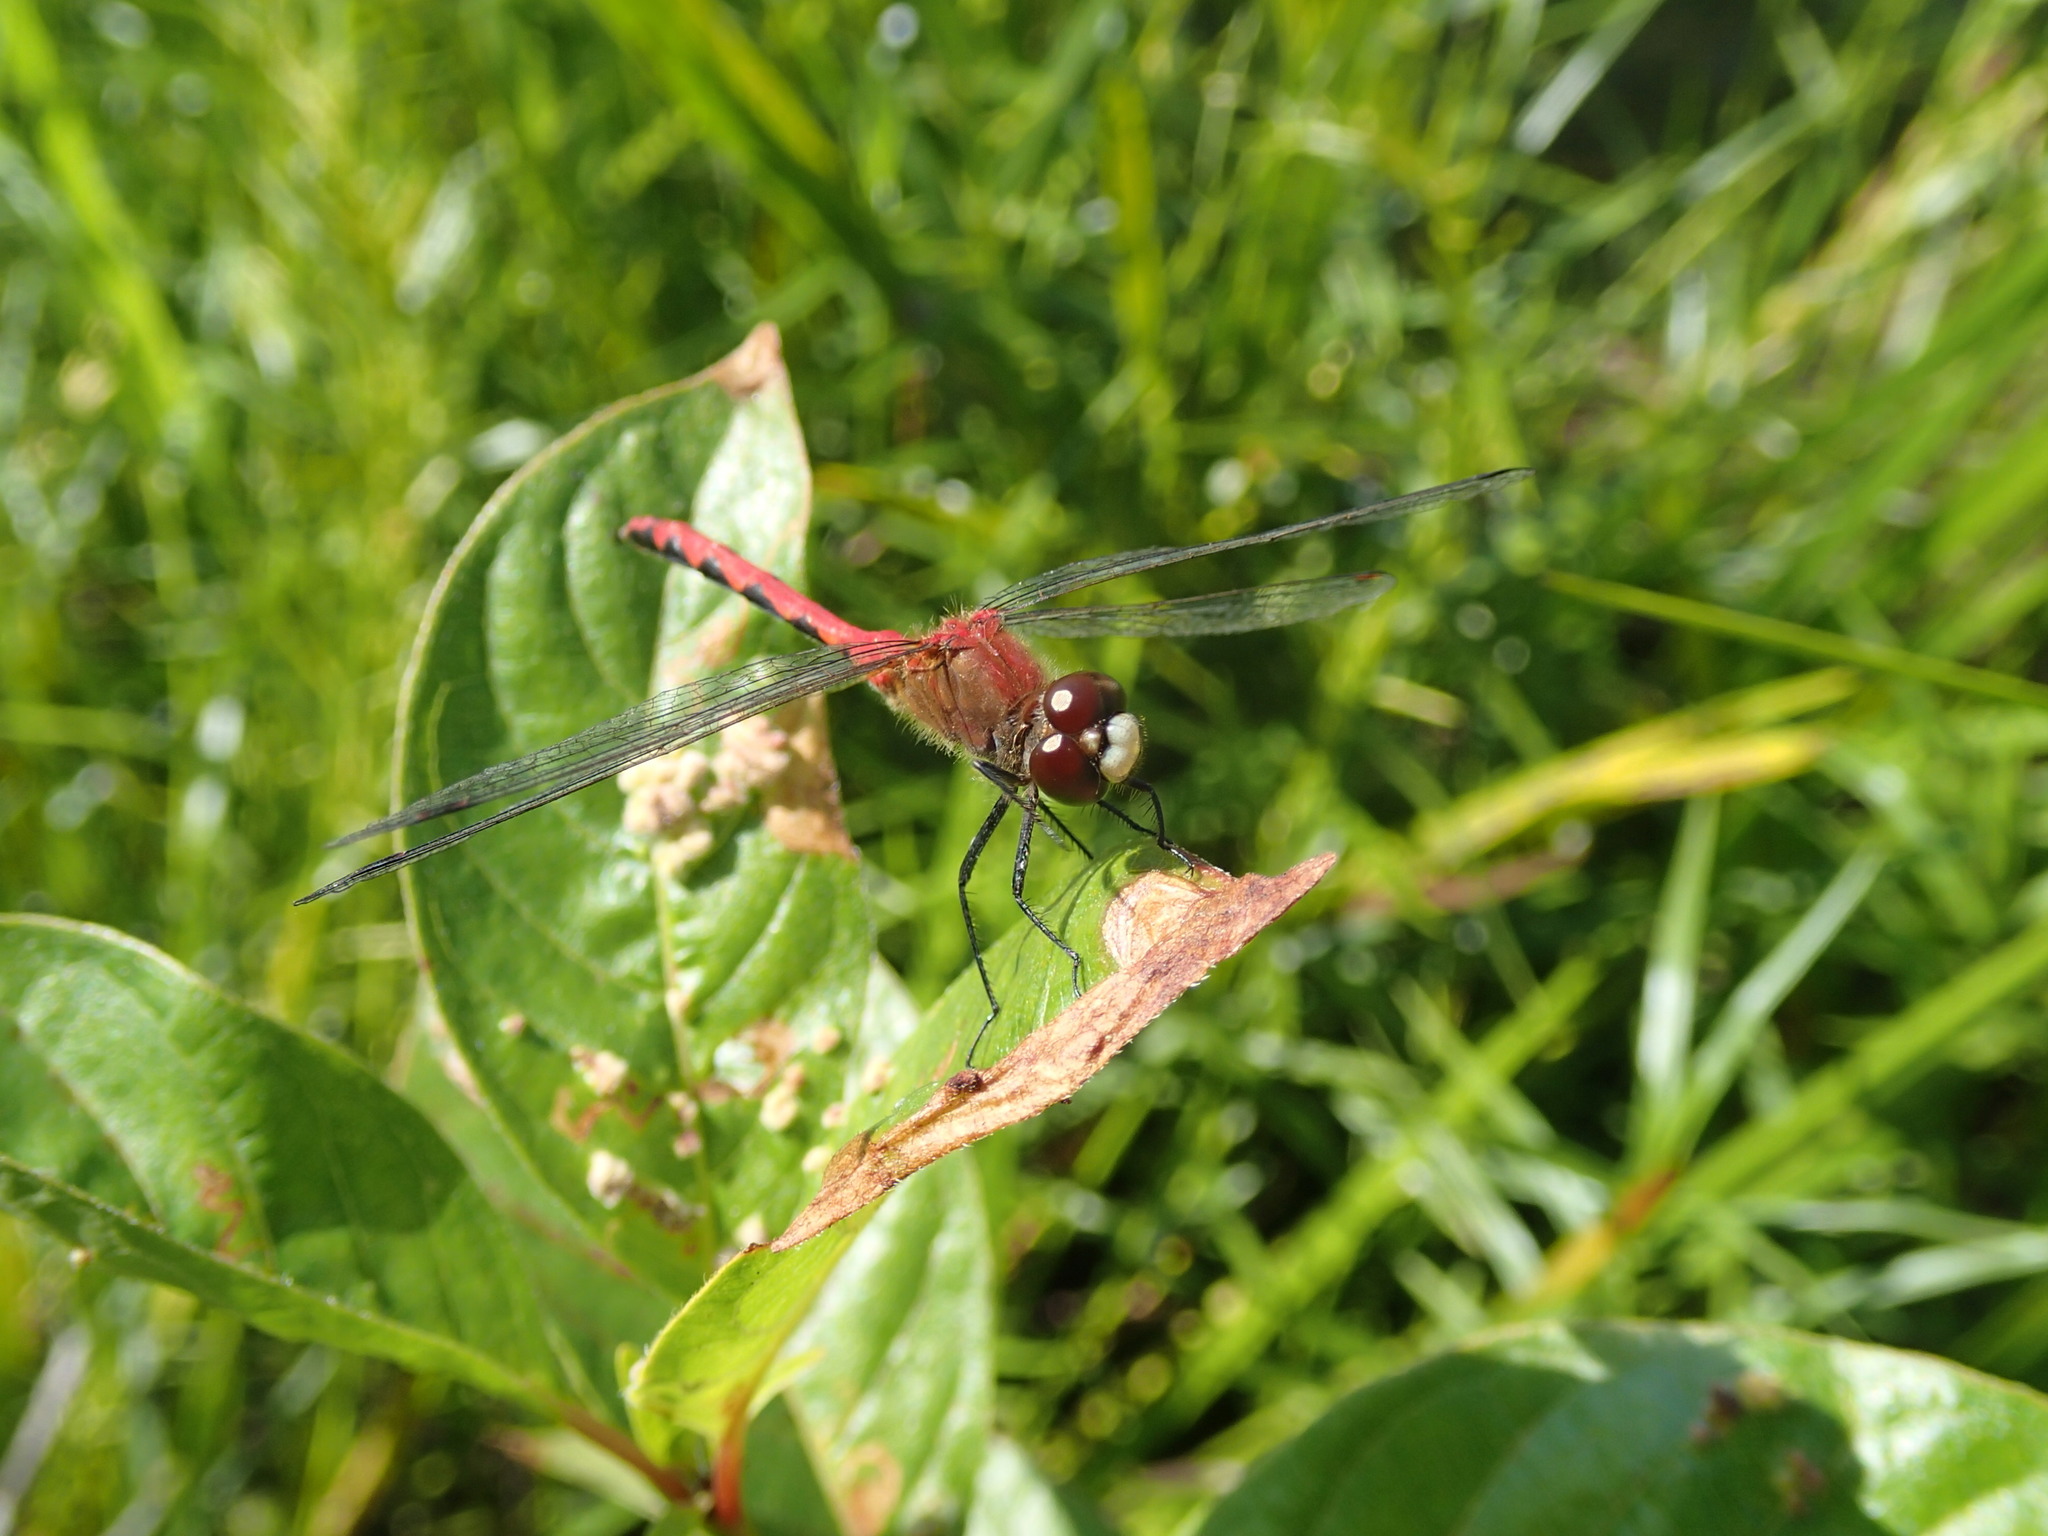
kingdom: Animalia
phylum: Arthropoda
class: Insecta
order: Odonata
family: Libellulidae
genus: Sympetrum
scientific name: Sympetrum obtrusum
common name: White-faced meadowhawk
